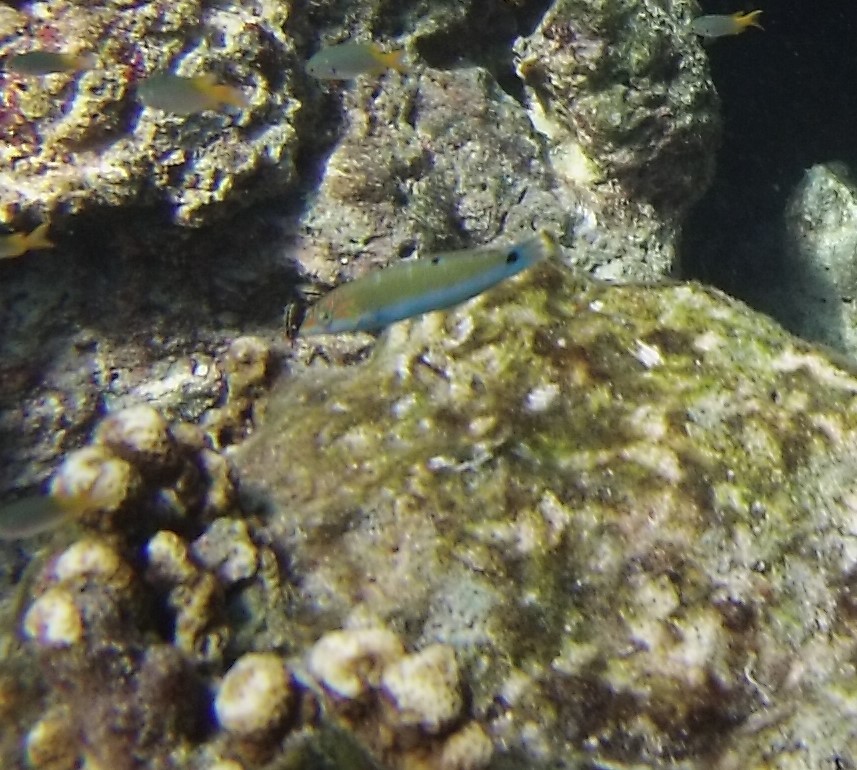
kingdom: Animalia
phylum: Chordata
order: Perciformes
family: Labridae
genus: Thalassoma
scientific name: Thalassoma lunare
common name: Blue wrasse
